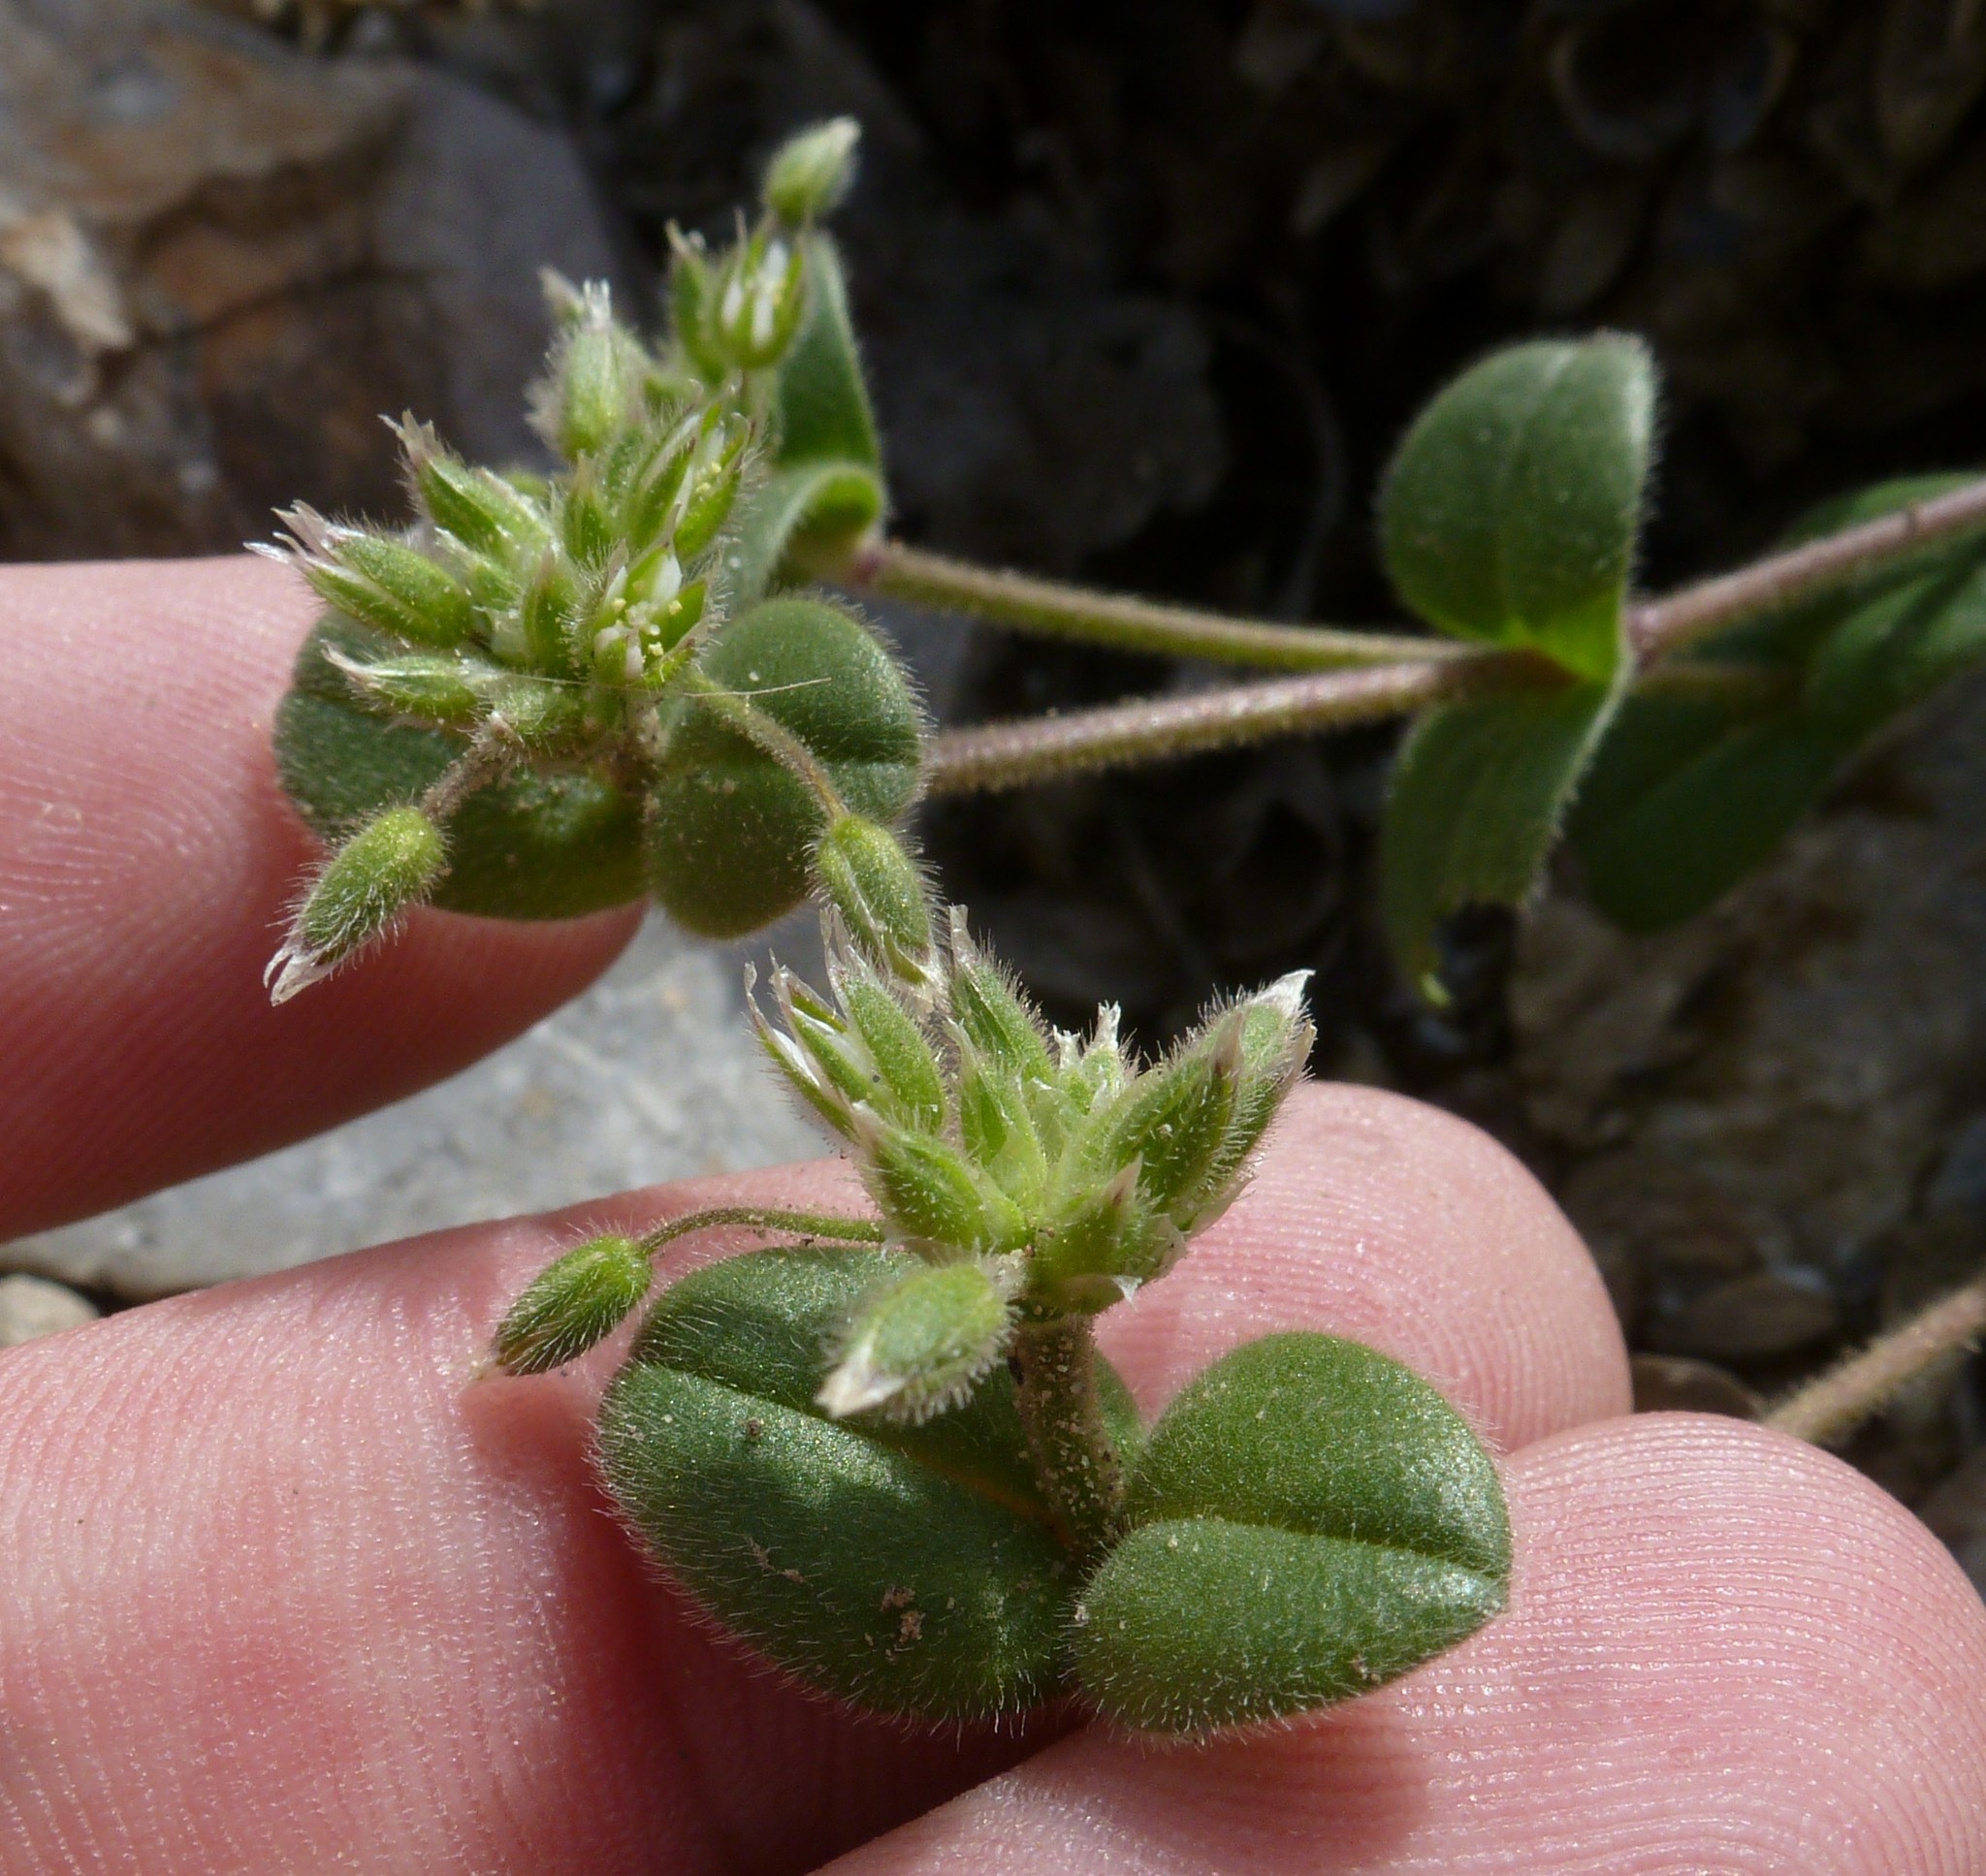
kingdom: Plantae
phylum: Tracheophyta
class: Magnoliopsida
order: Caryophyllales
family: Caryophyllaceae
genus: Cerastium
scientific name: Cerastium glomeratum
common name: Sticky chickweed
